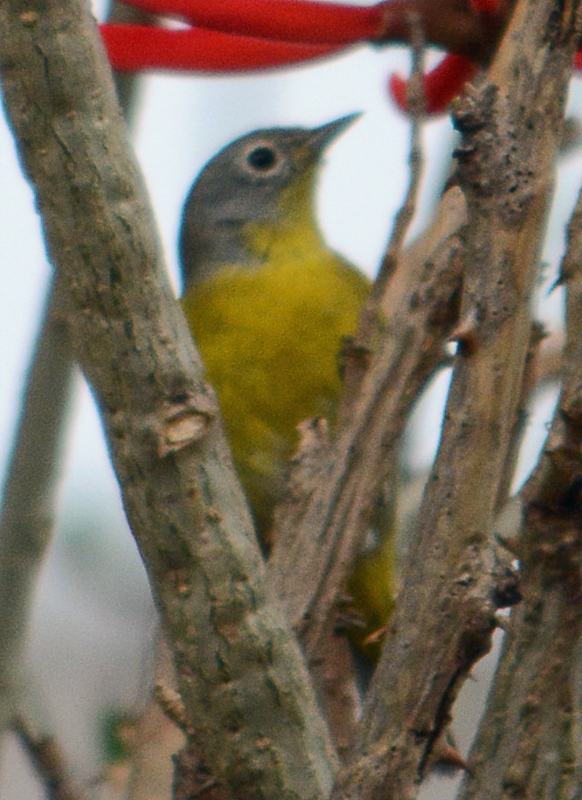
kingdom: Animalia
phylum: Chordata
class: Aves
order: Passeriformes
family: Parulidae
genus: Leiothlypis
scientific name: Leiothlypis ruficapilla
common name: Nashville warbler
